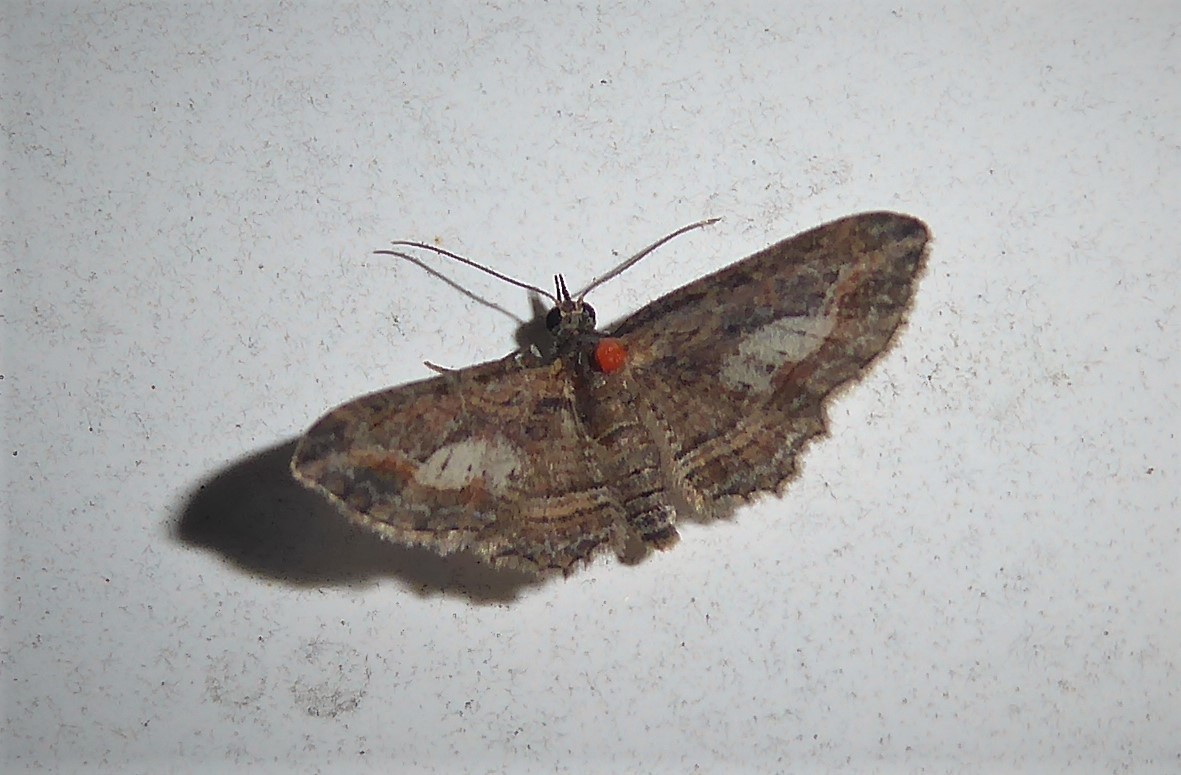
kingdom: Animalia
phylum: Arthropoda
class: Insecta
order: Lepidoptera
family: Geometridae
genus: Chloroclystis
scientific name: Chloroclystis filata
